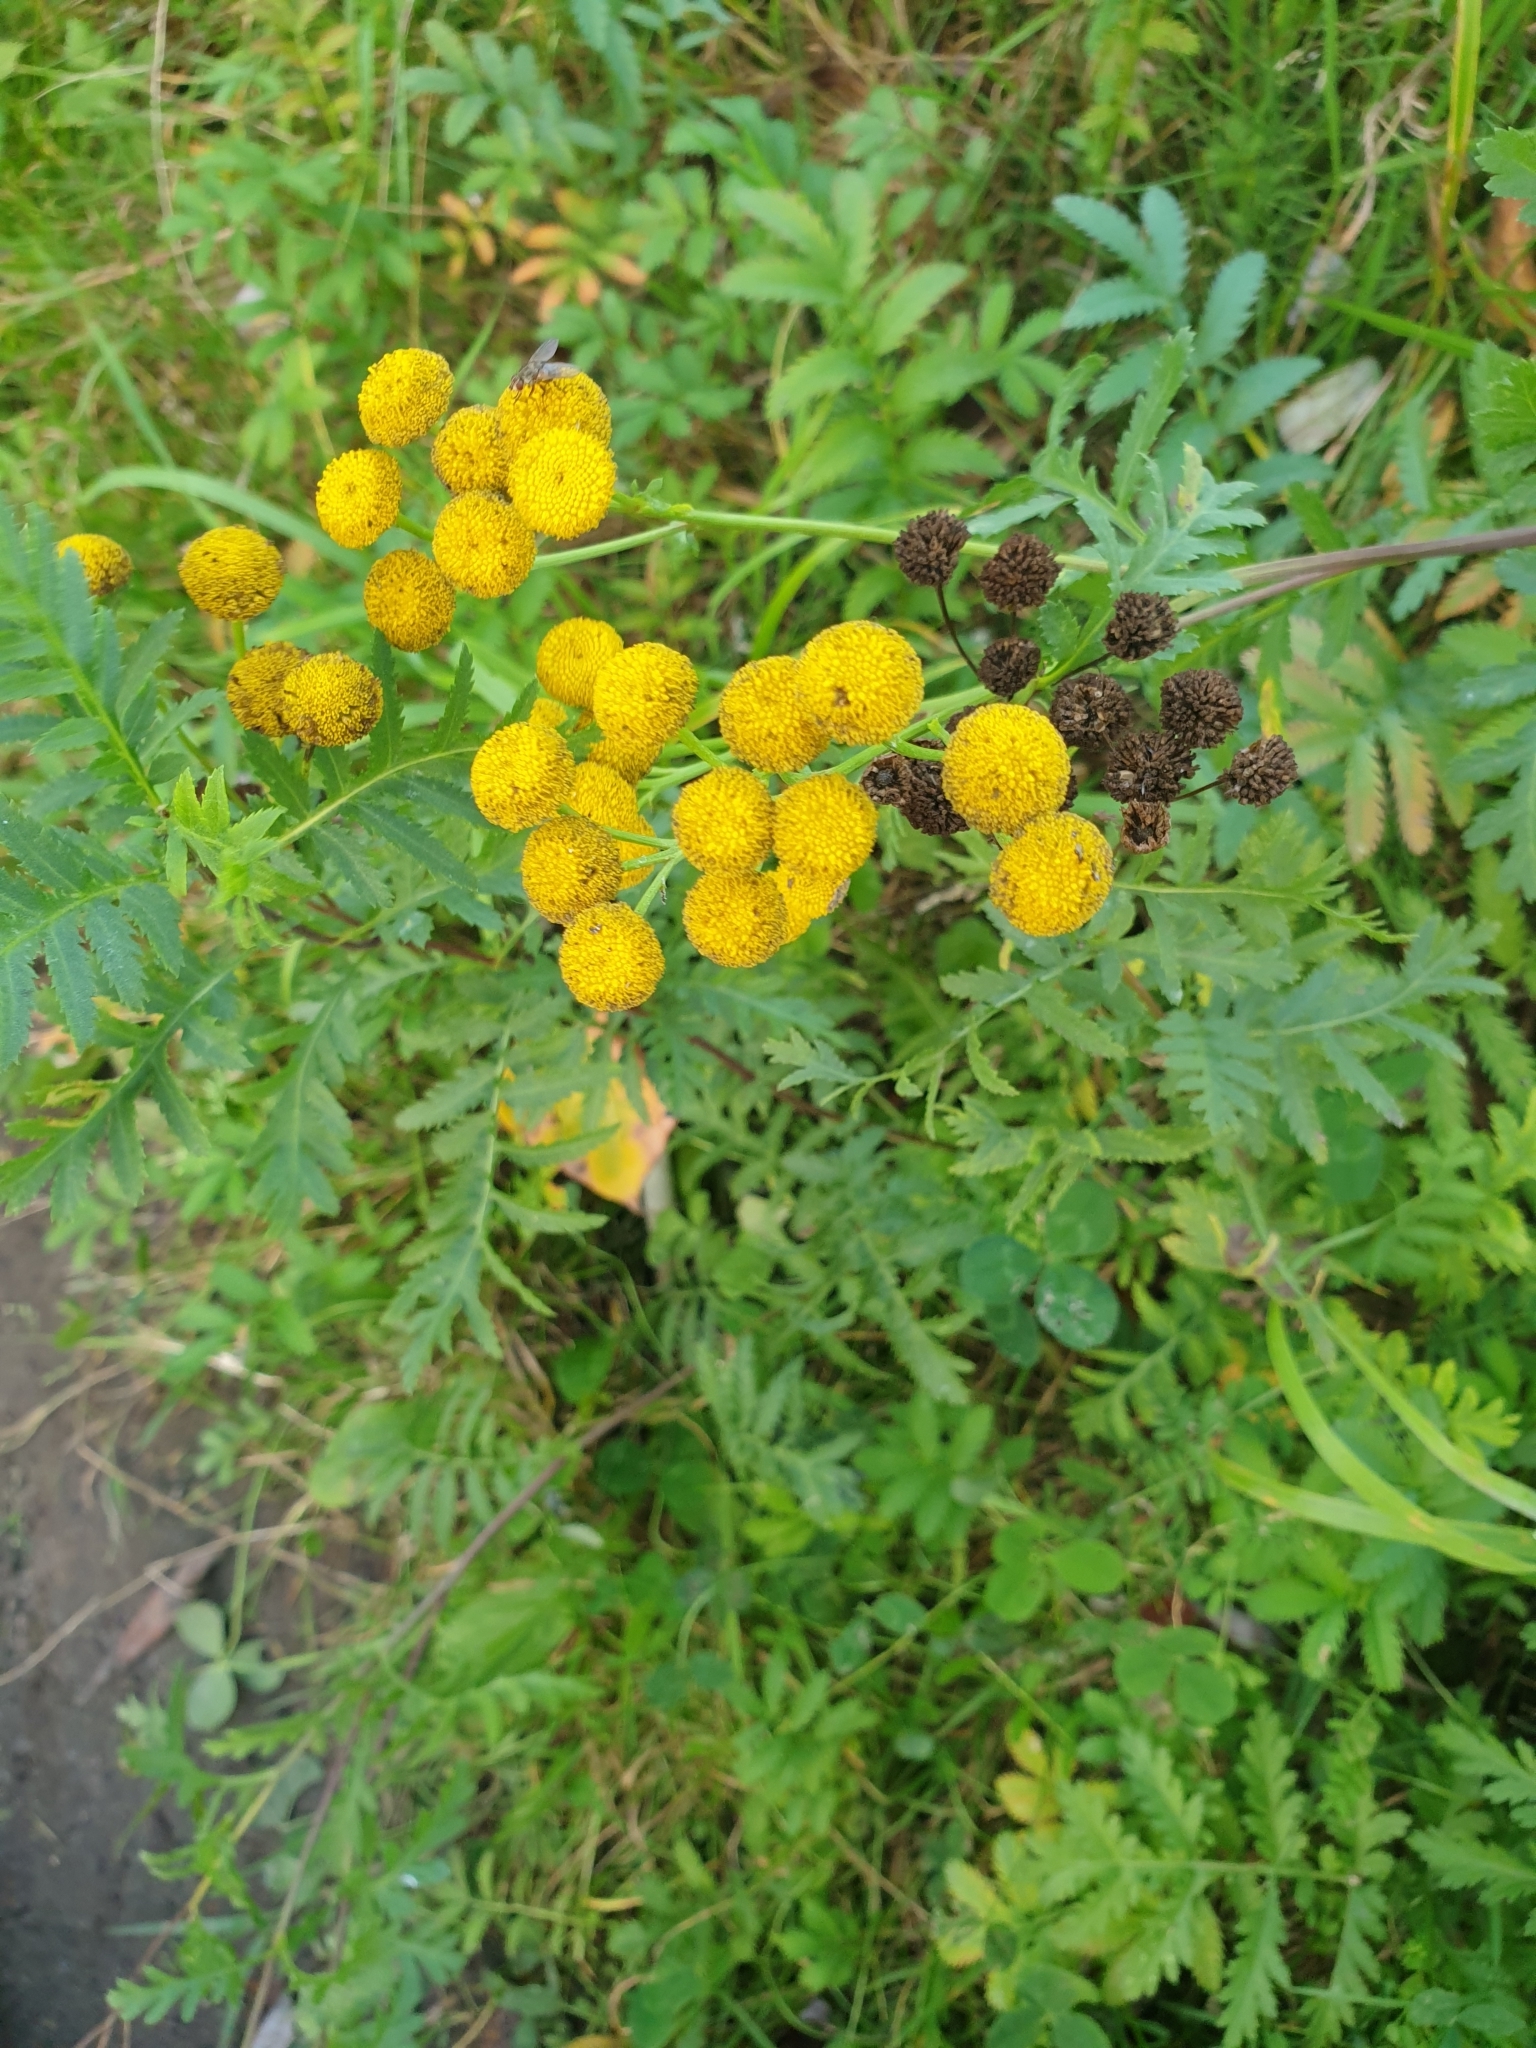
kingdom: Plantae
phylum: Tracheophyta
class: Magnoliopsida
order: Asterales
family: Asteraceae
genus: Tanacetum
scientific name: Tanacetum vulgare
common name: Common tansy
